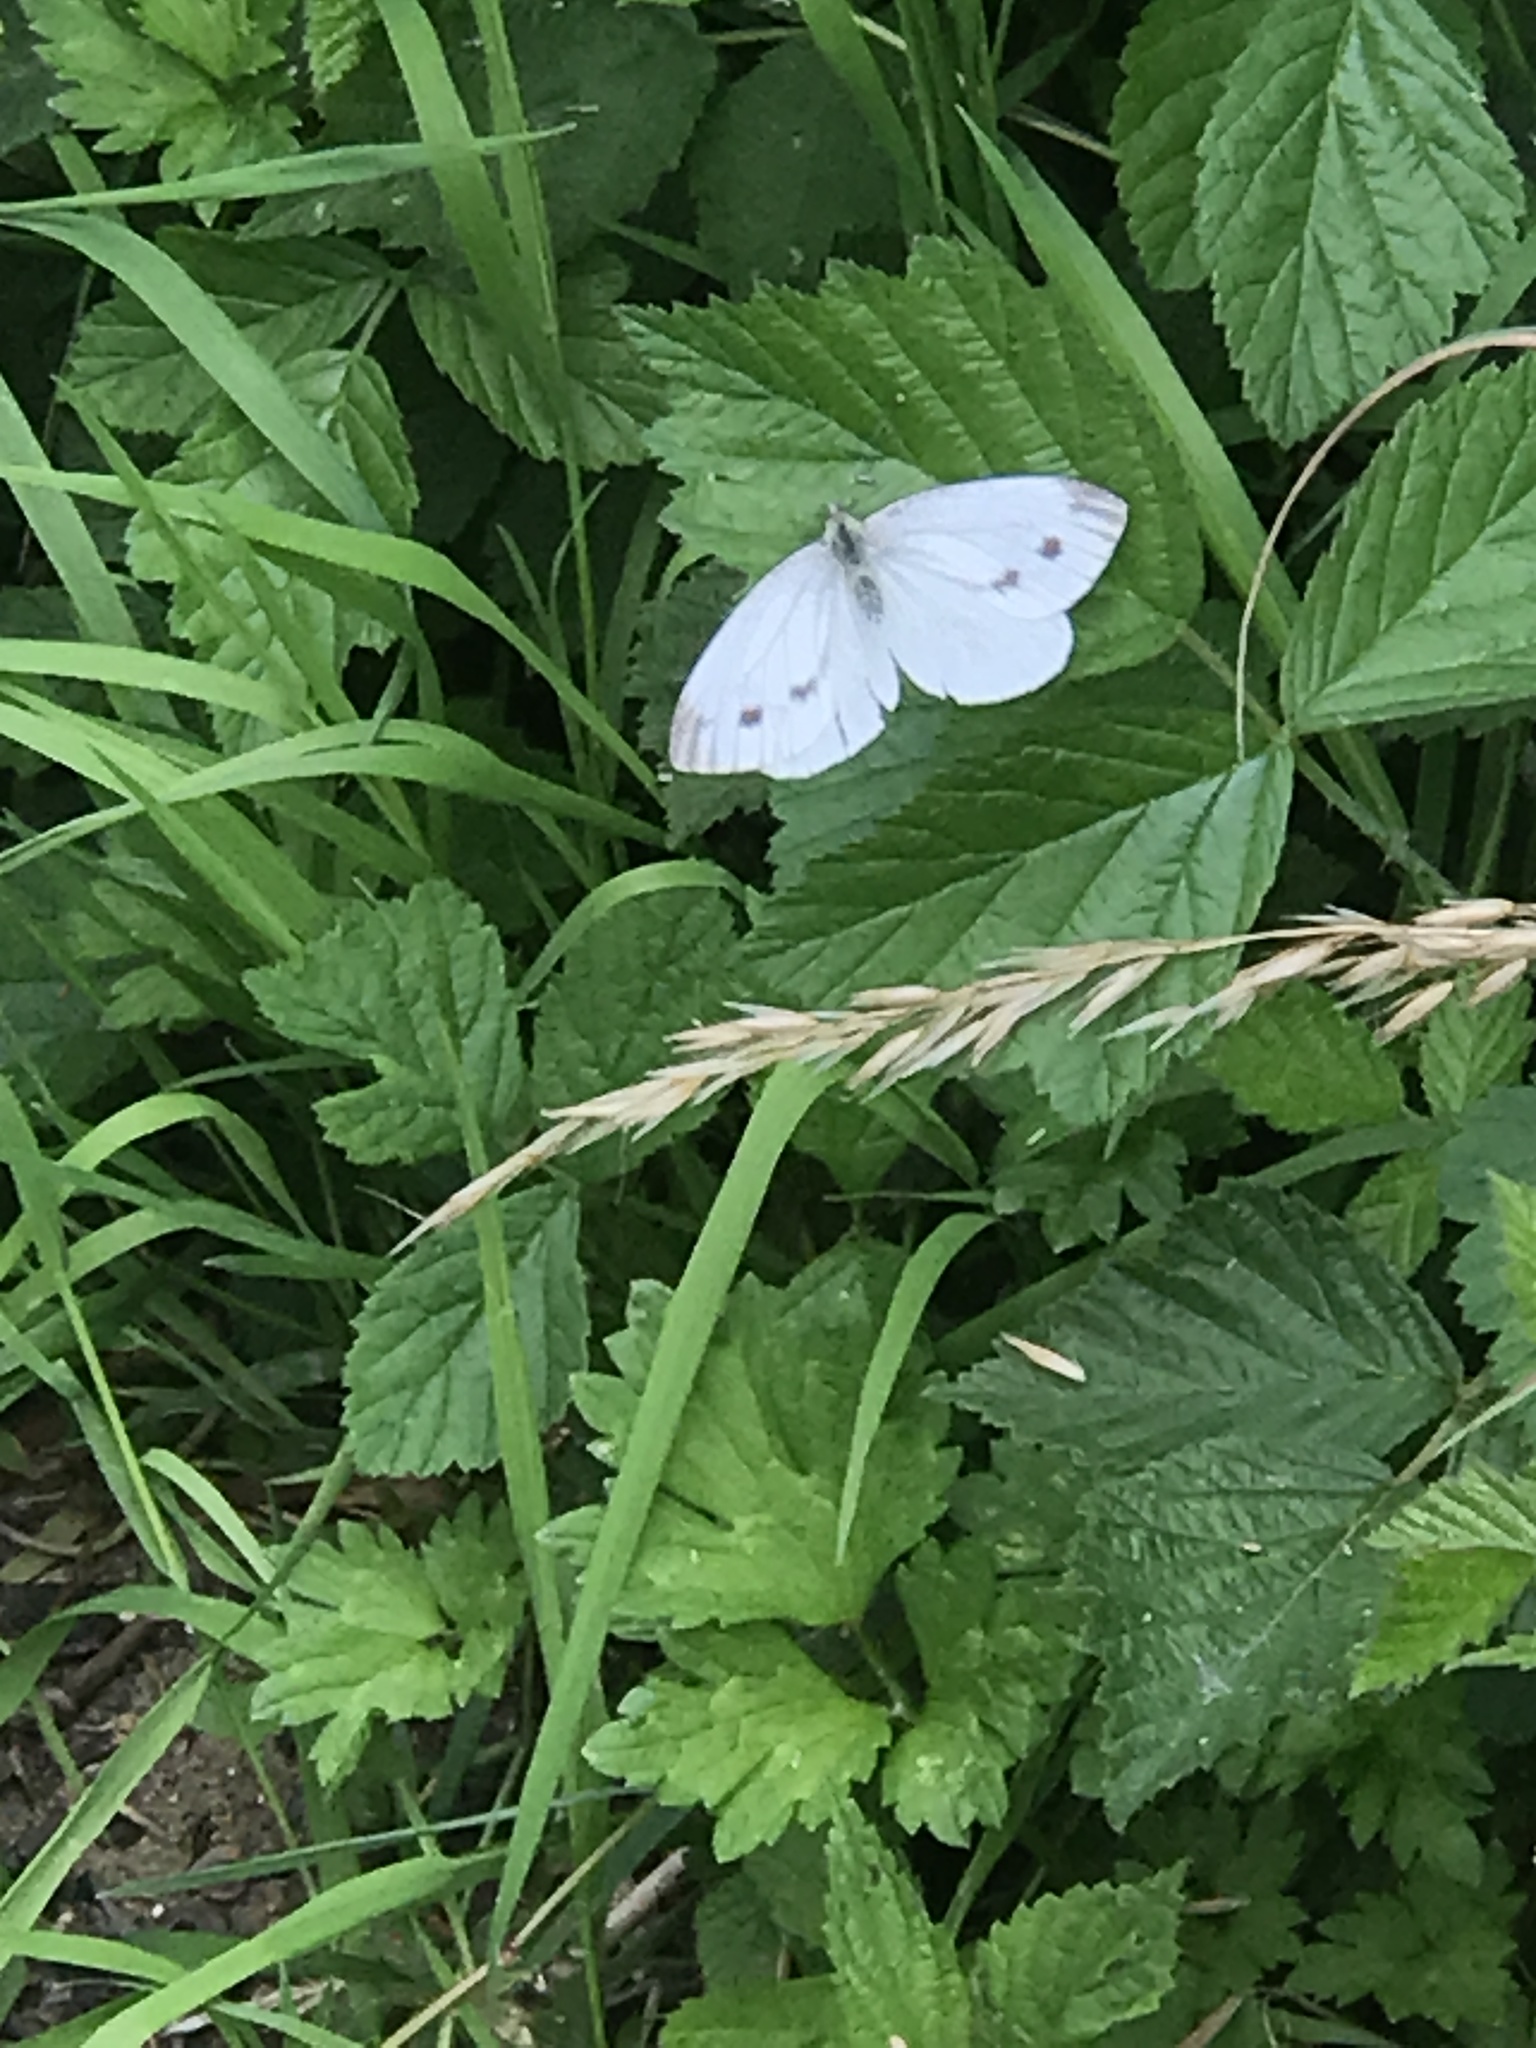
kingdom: Animalia
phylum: Arthropoda
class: Insecta
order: Lepidoptera
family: Pieridae
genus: Pieris
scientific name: Pieris napi
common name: Green-veined white
